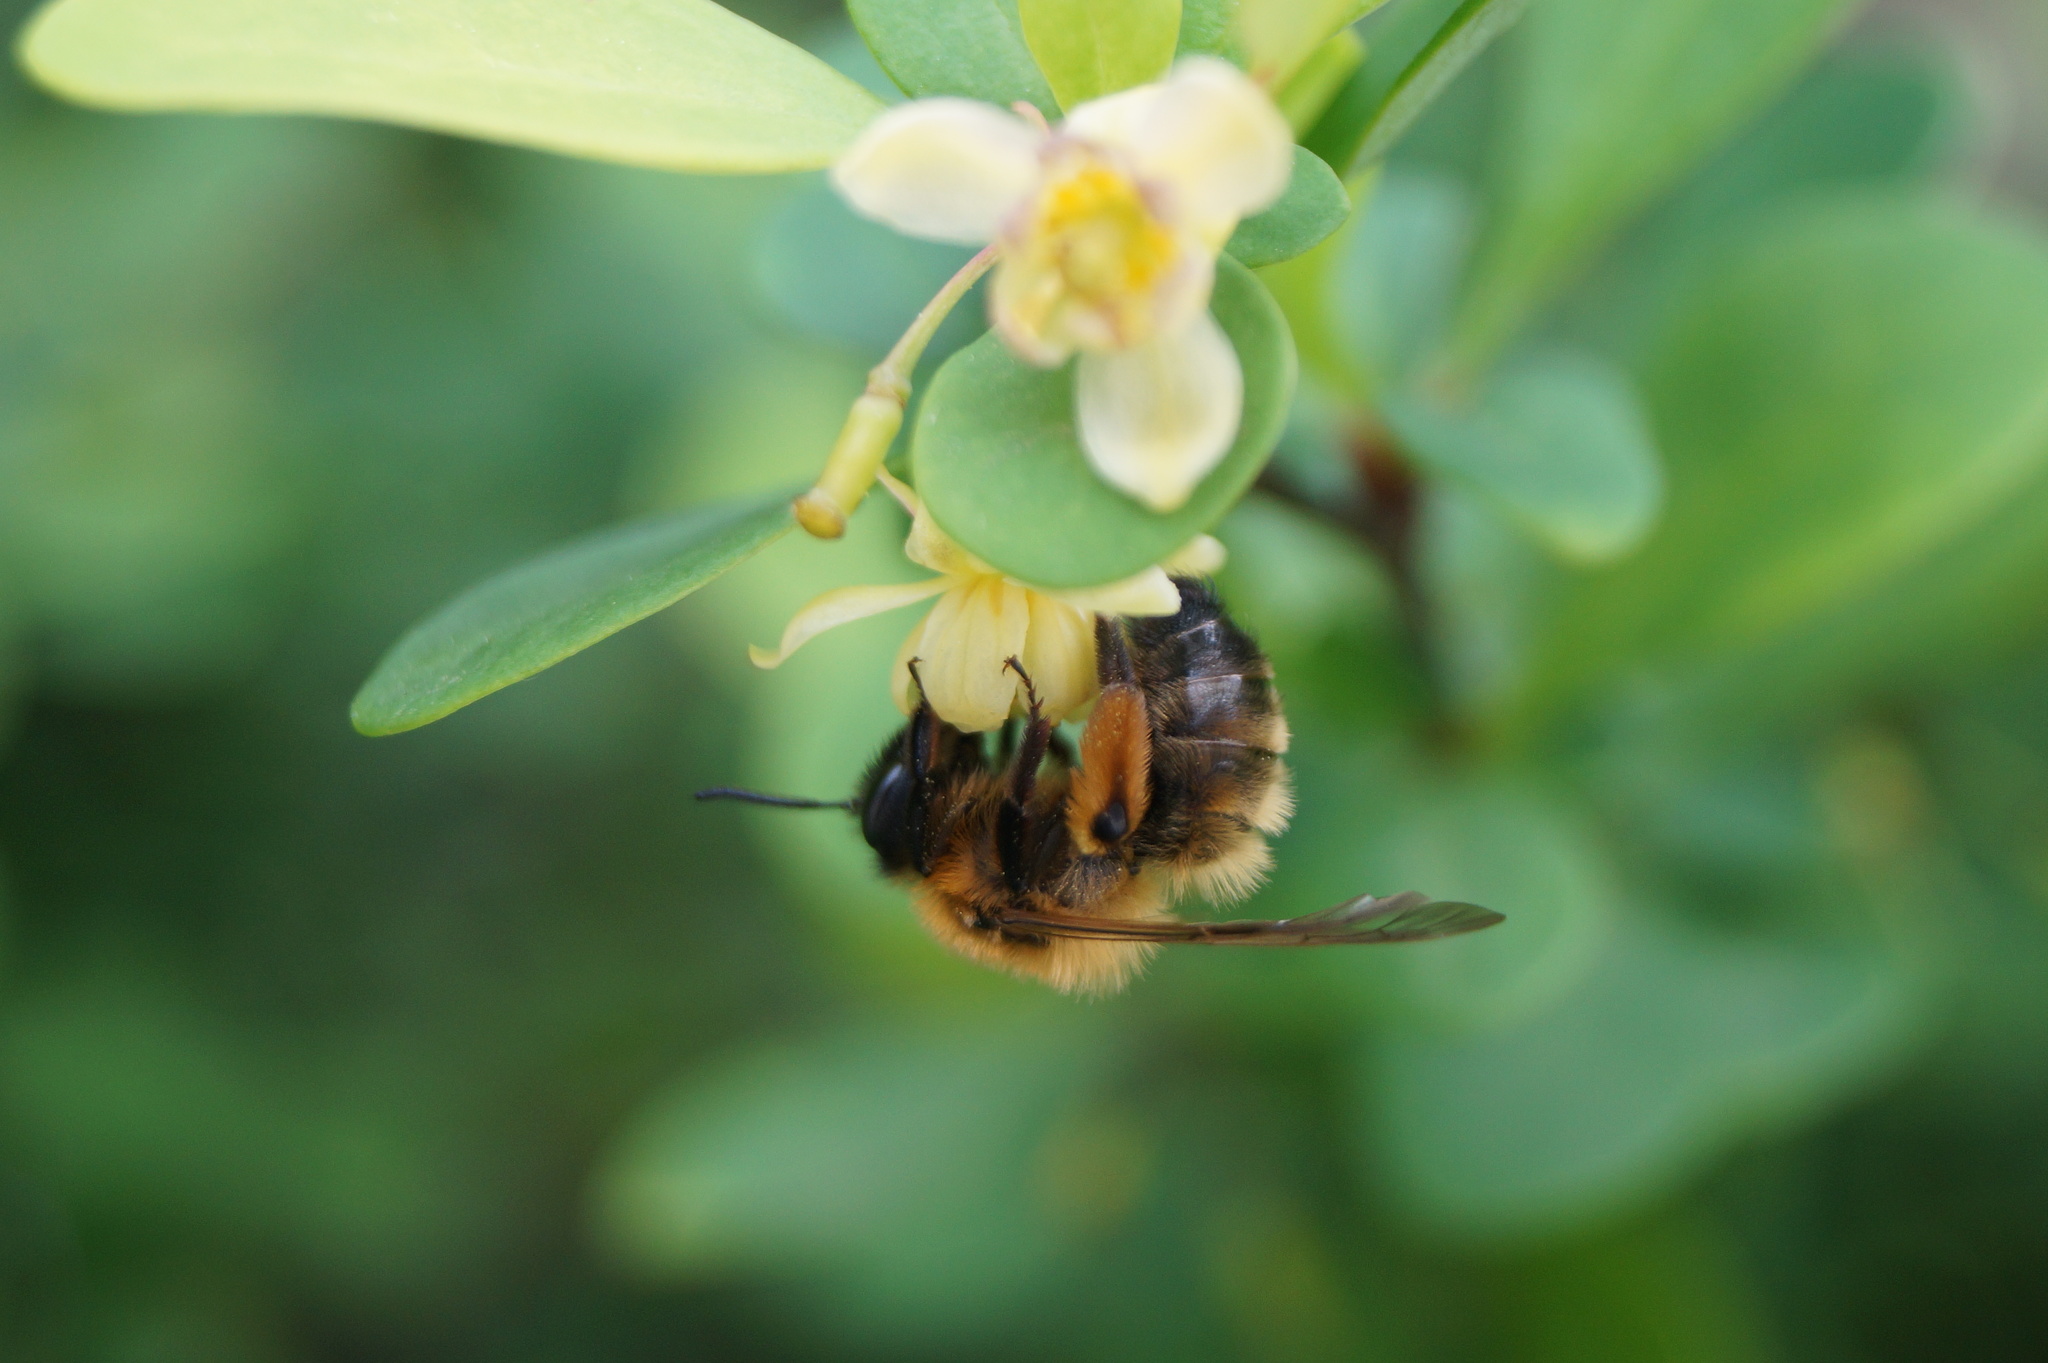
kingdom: Animalia
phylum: Arthropoda
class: Insecta
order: Hymenoptera
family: Andrenidae
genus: Andrena
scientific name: Andrena nigroaenea
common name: Buffish mining bee
